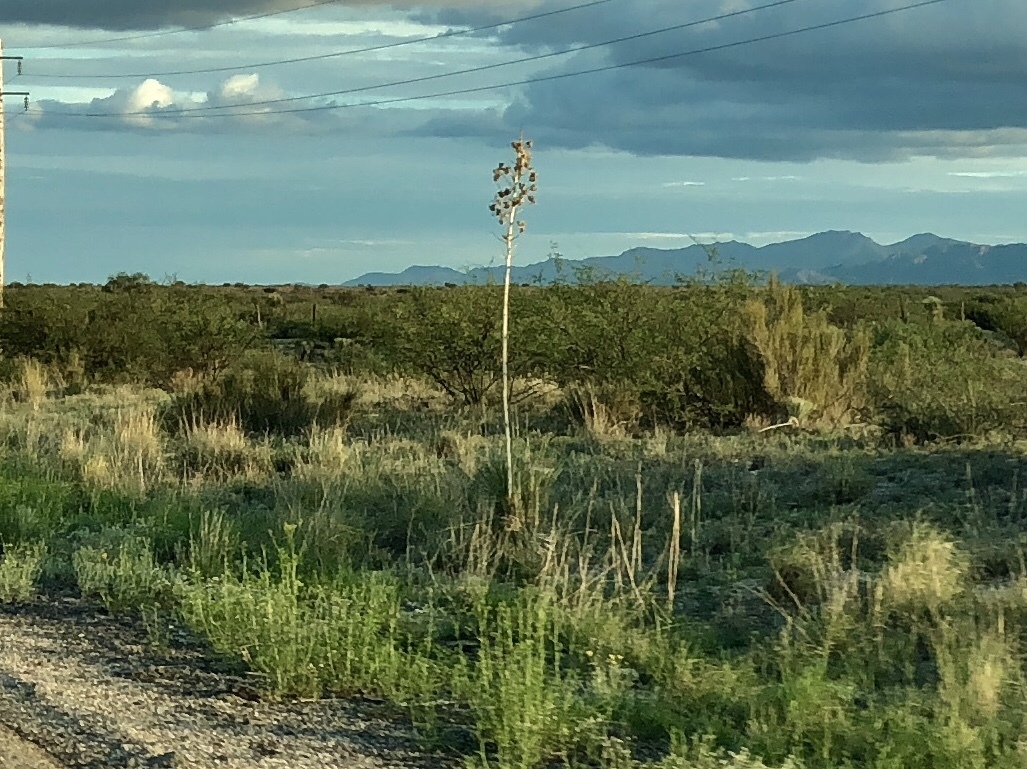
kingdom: Plantae
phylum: Tracheophyta
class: Liliopsida
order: Asparagales
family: Asparagaceae
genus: Yucca
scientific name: Yucca elata
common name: Palmella
